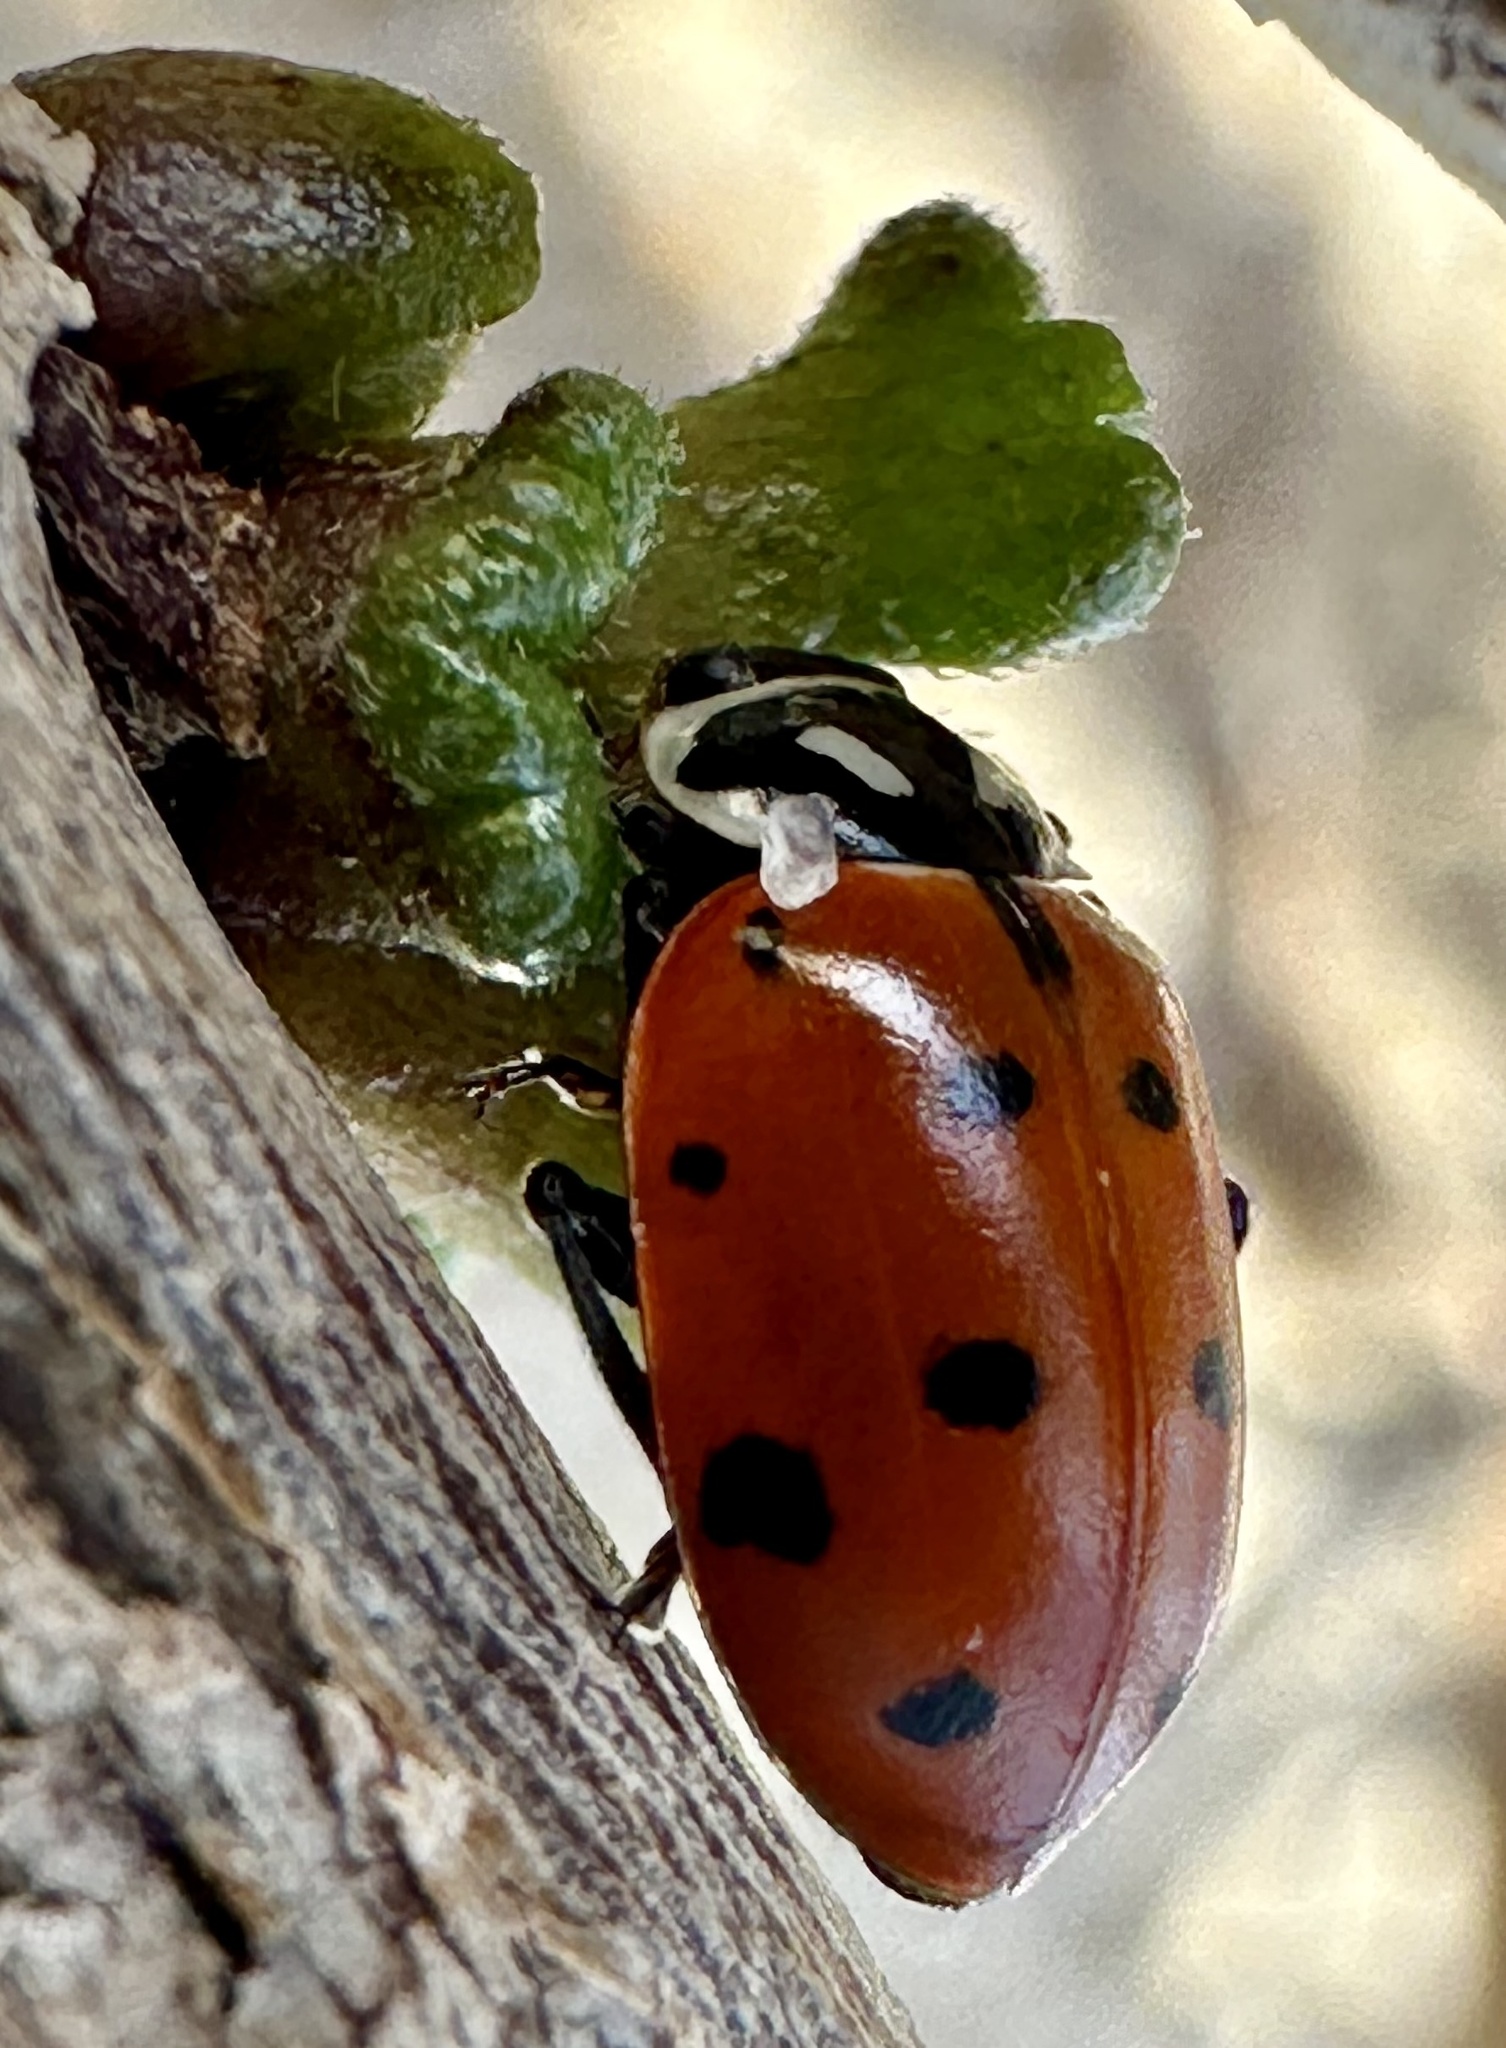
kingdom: Animalia
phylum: Arthropoda
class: Insecta
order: Coleoptera
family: Coccinellidae
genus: Hippodamia
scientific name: Hippodamia convergens
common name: Convergent lady beetle
